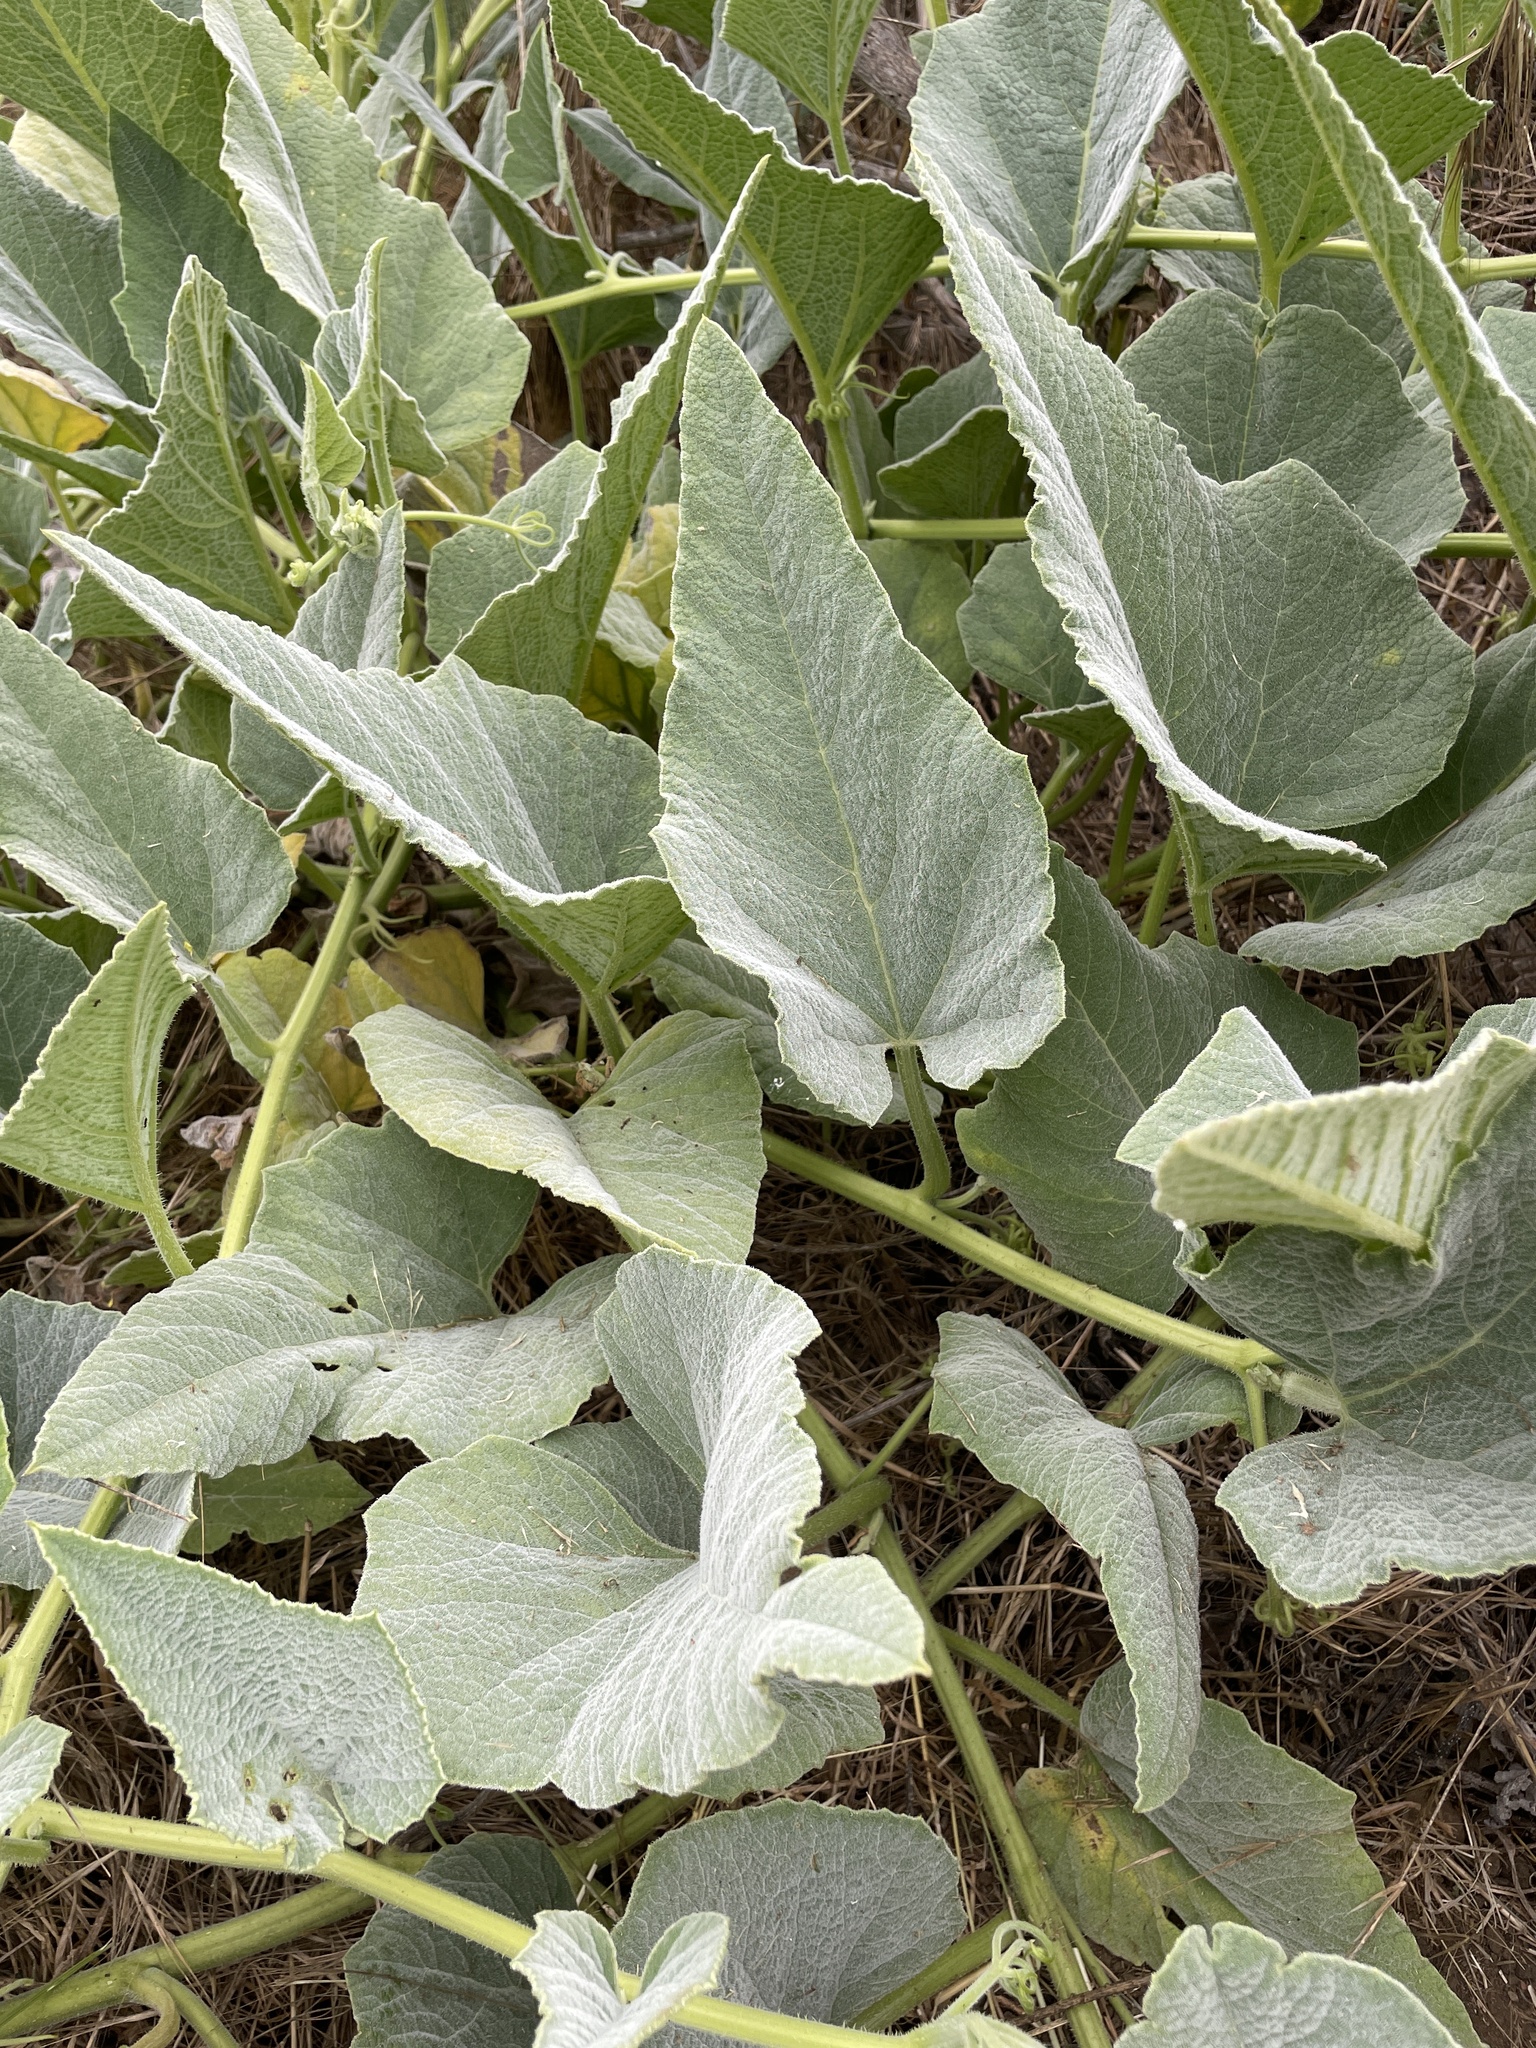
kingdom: Plantae
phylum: Tracheophyta
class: Magnoliopsida
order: Cucurbitales
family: Cucurbitaceae
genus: Cucurbita
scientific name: Cucurbita foetidissima
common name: Buffalo gourd
